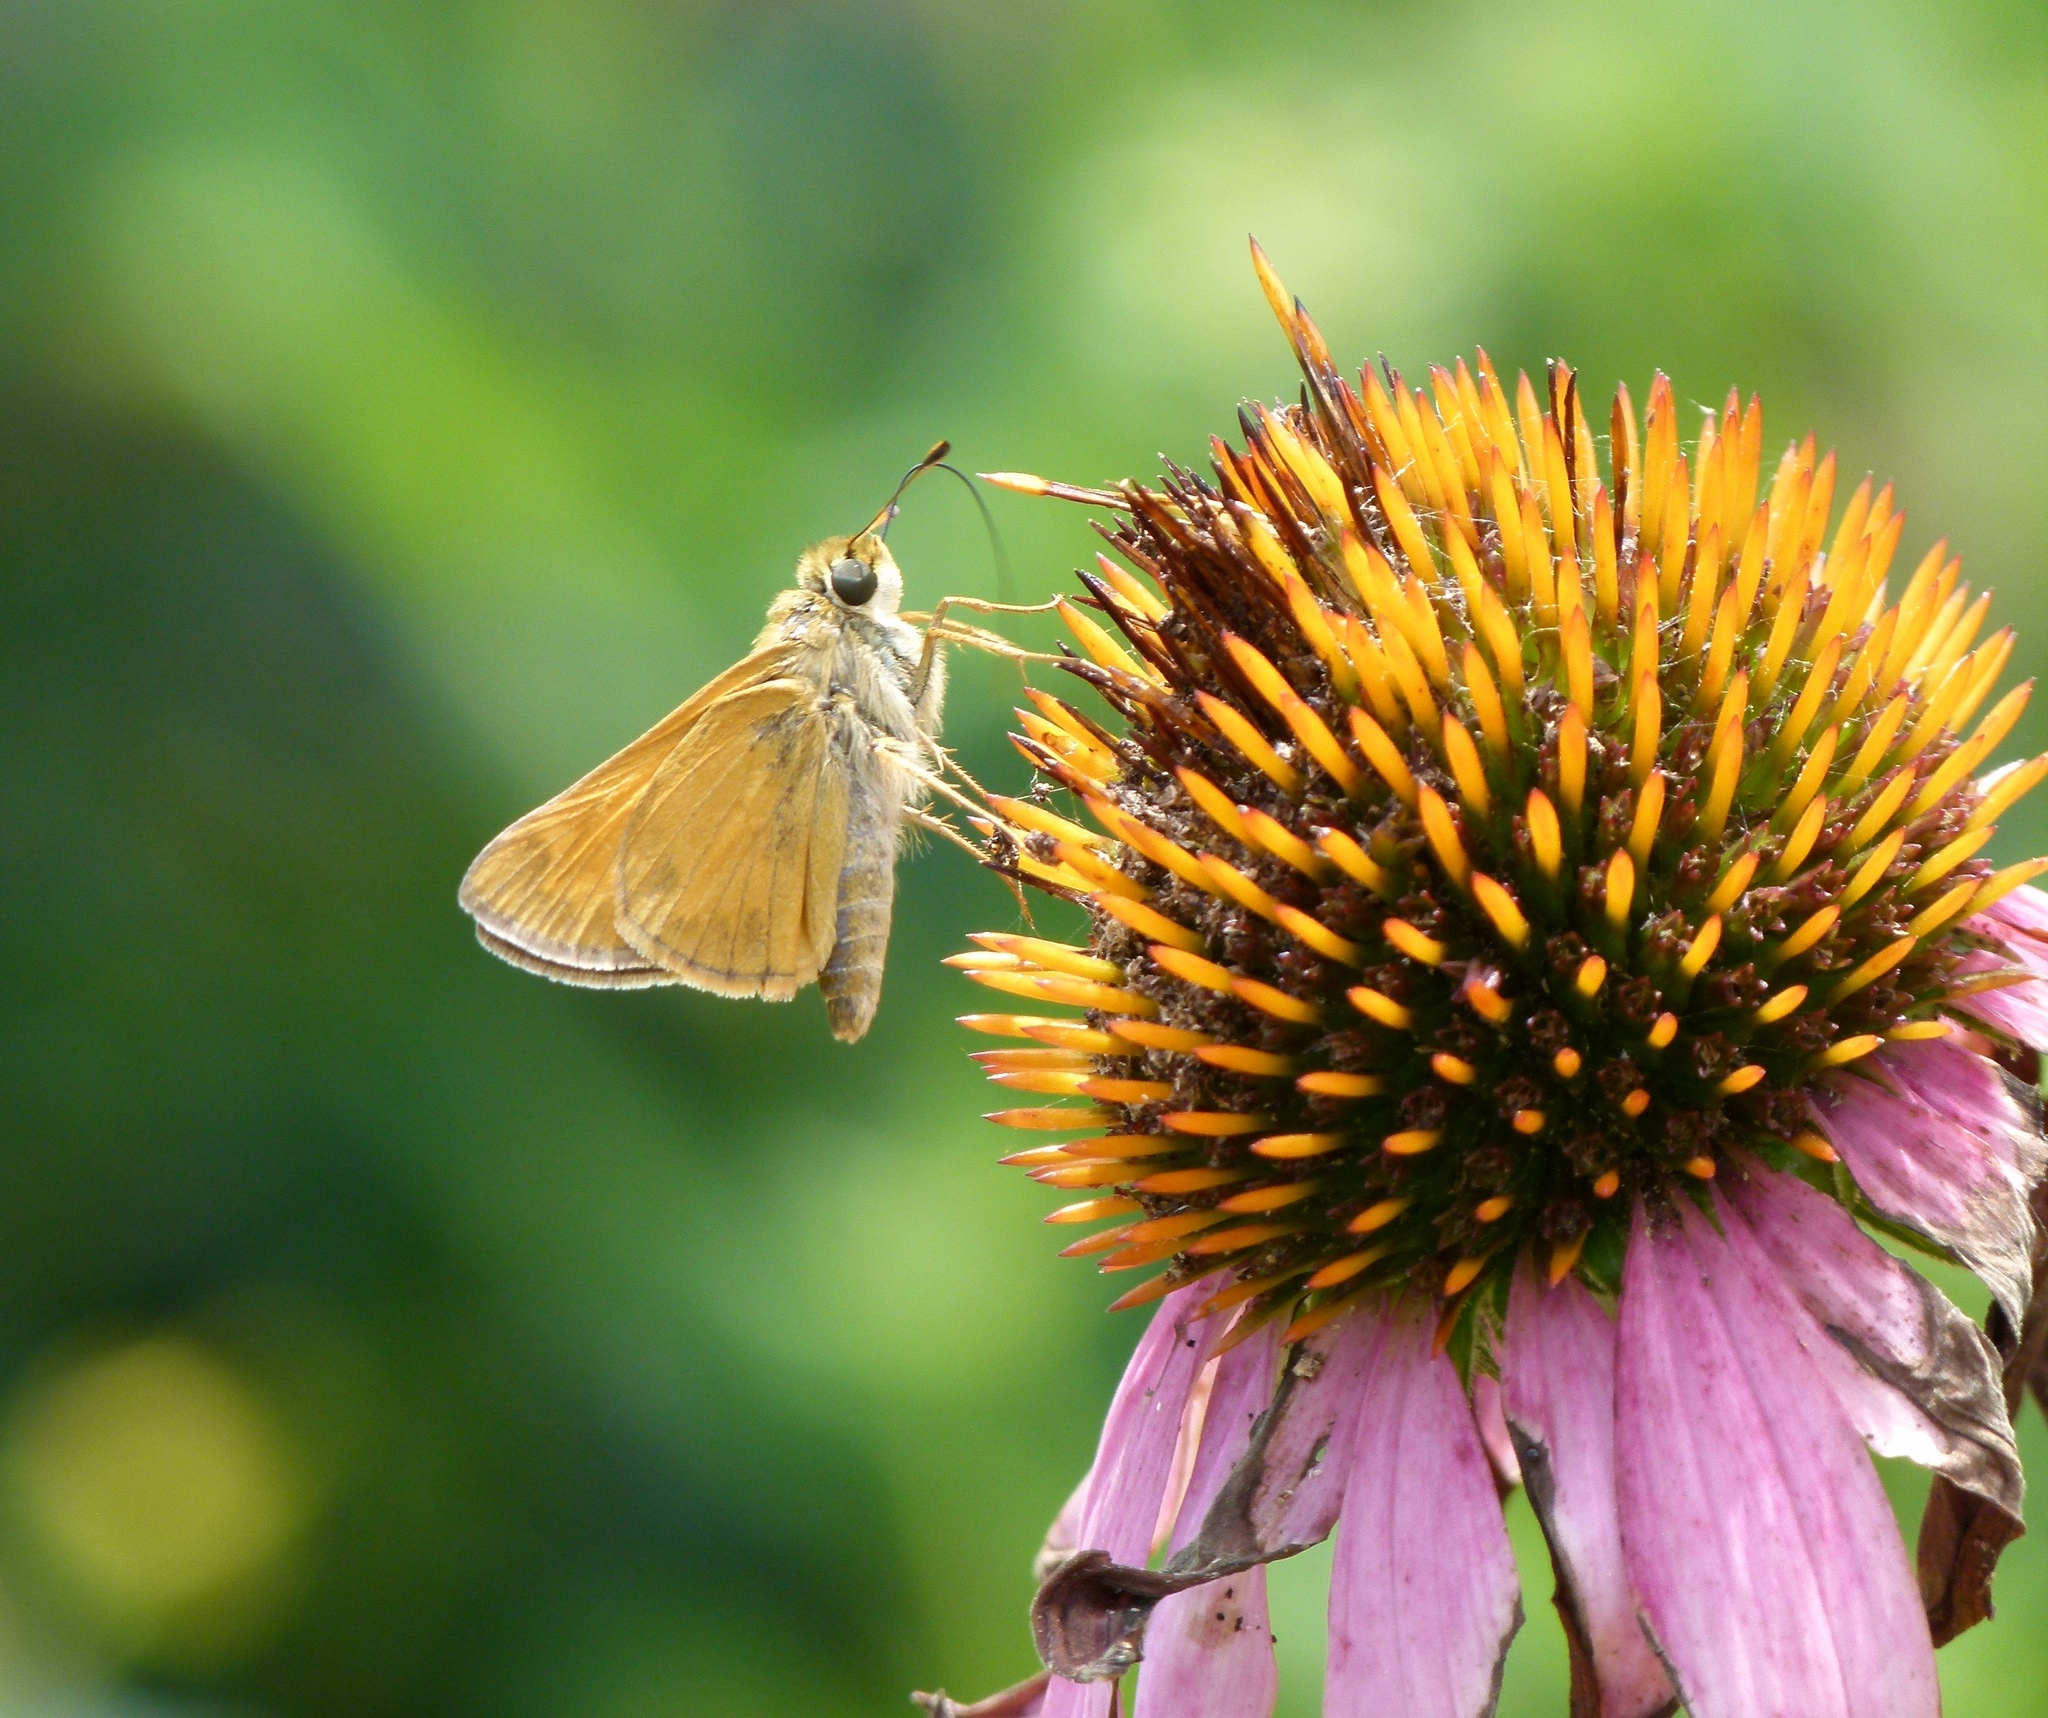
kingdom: Animalia
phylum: Arthropoda
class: Insecta
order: Lepidoptera
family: Hesperiidae
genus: Atalopedes
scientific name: Atalopedes
